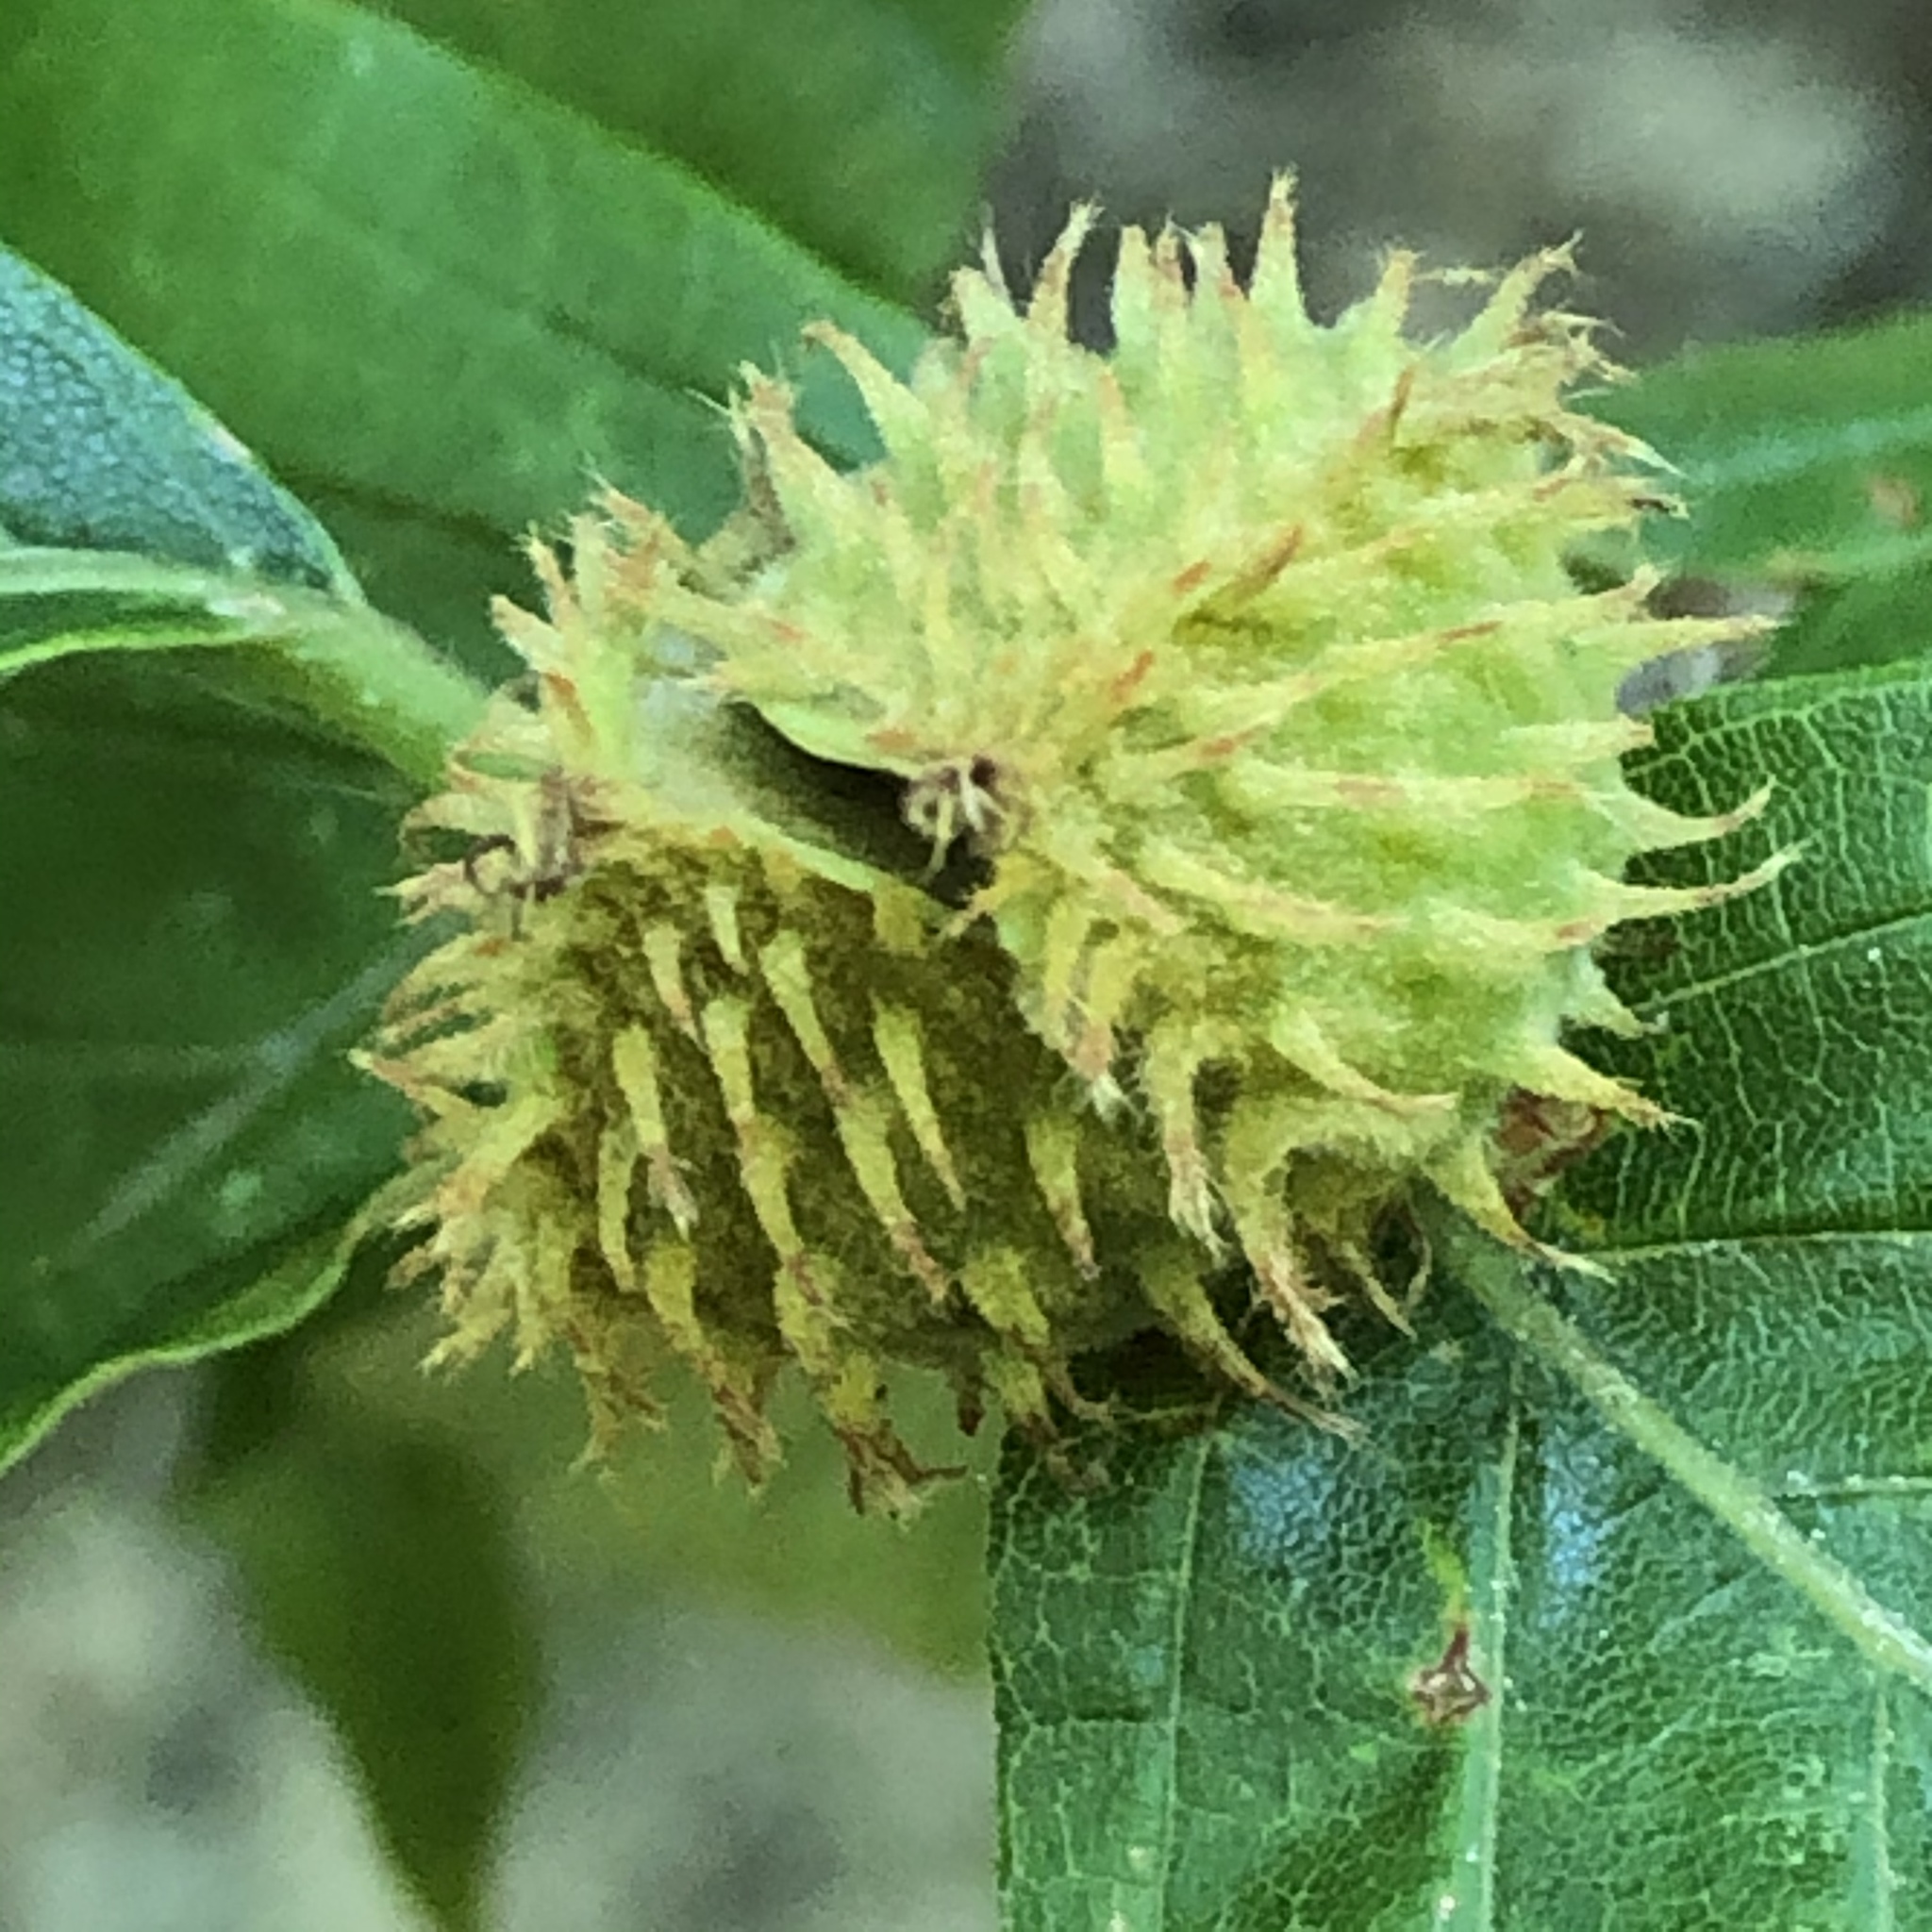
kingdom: Plantae
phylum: Tracheophyta
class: Magnoliopsida
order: Fagales
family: Fagaceae
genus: Fagus
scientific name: Fagus grandifolia
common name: American beech
